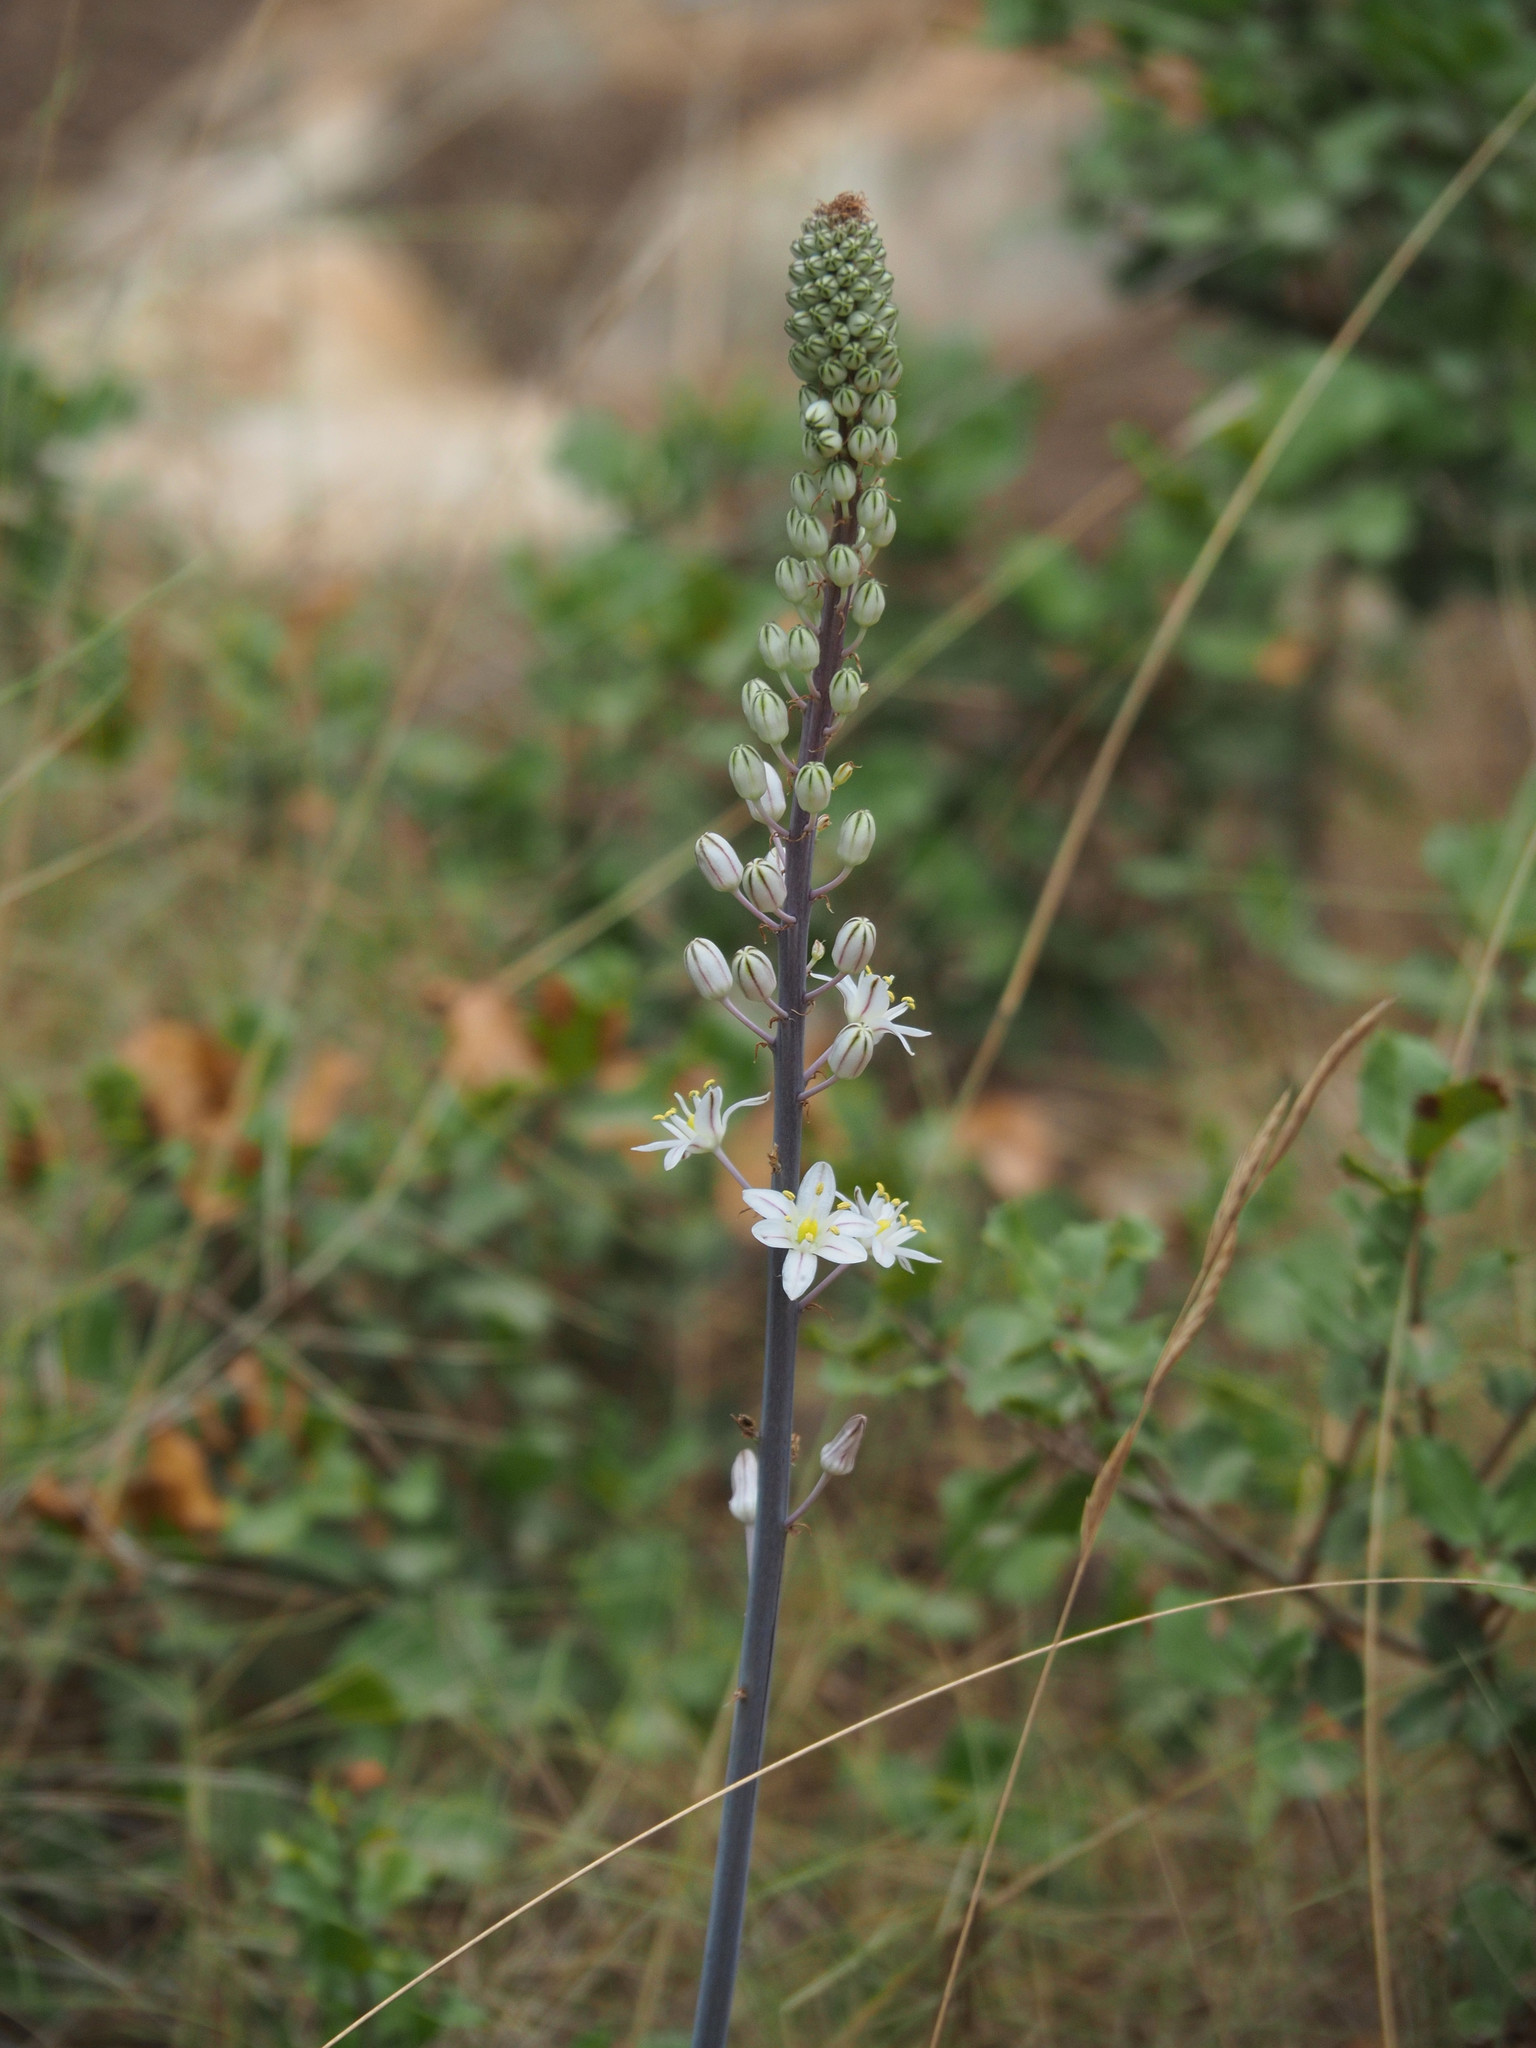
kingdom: Plantae
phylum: Tracheophyta
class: Liliopsida
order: Asparagales
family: Asparagaceae
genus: Drimia
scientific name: Drimia maritima
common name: Maritime squill
